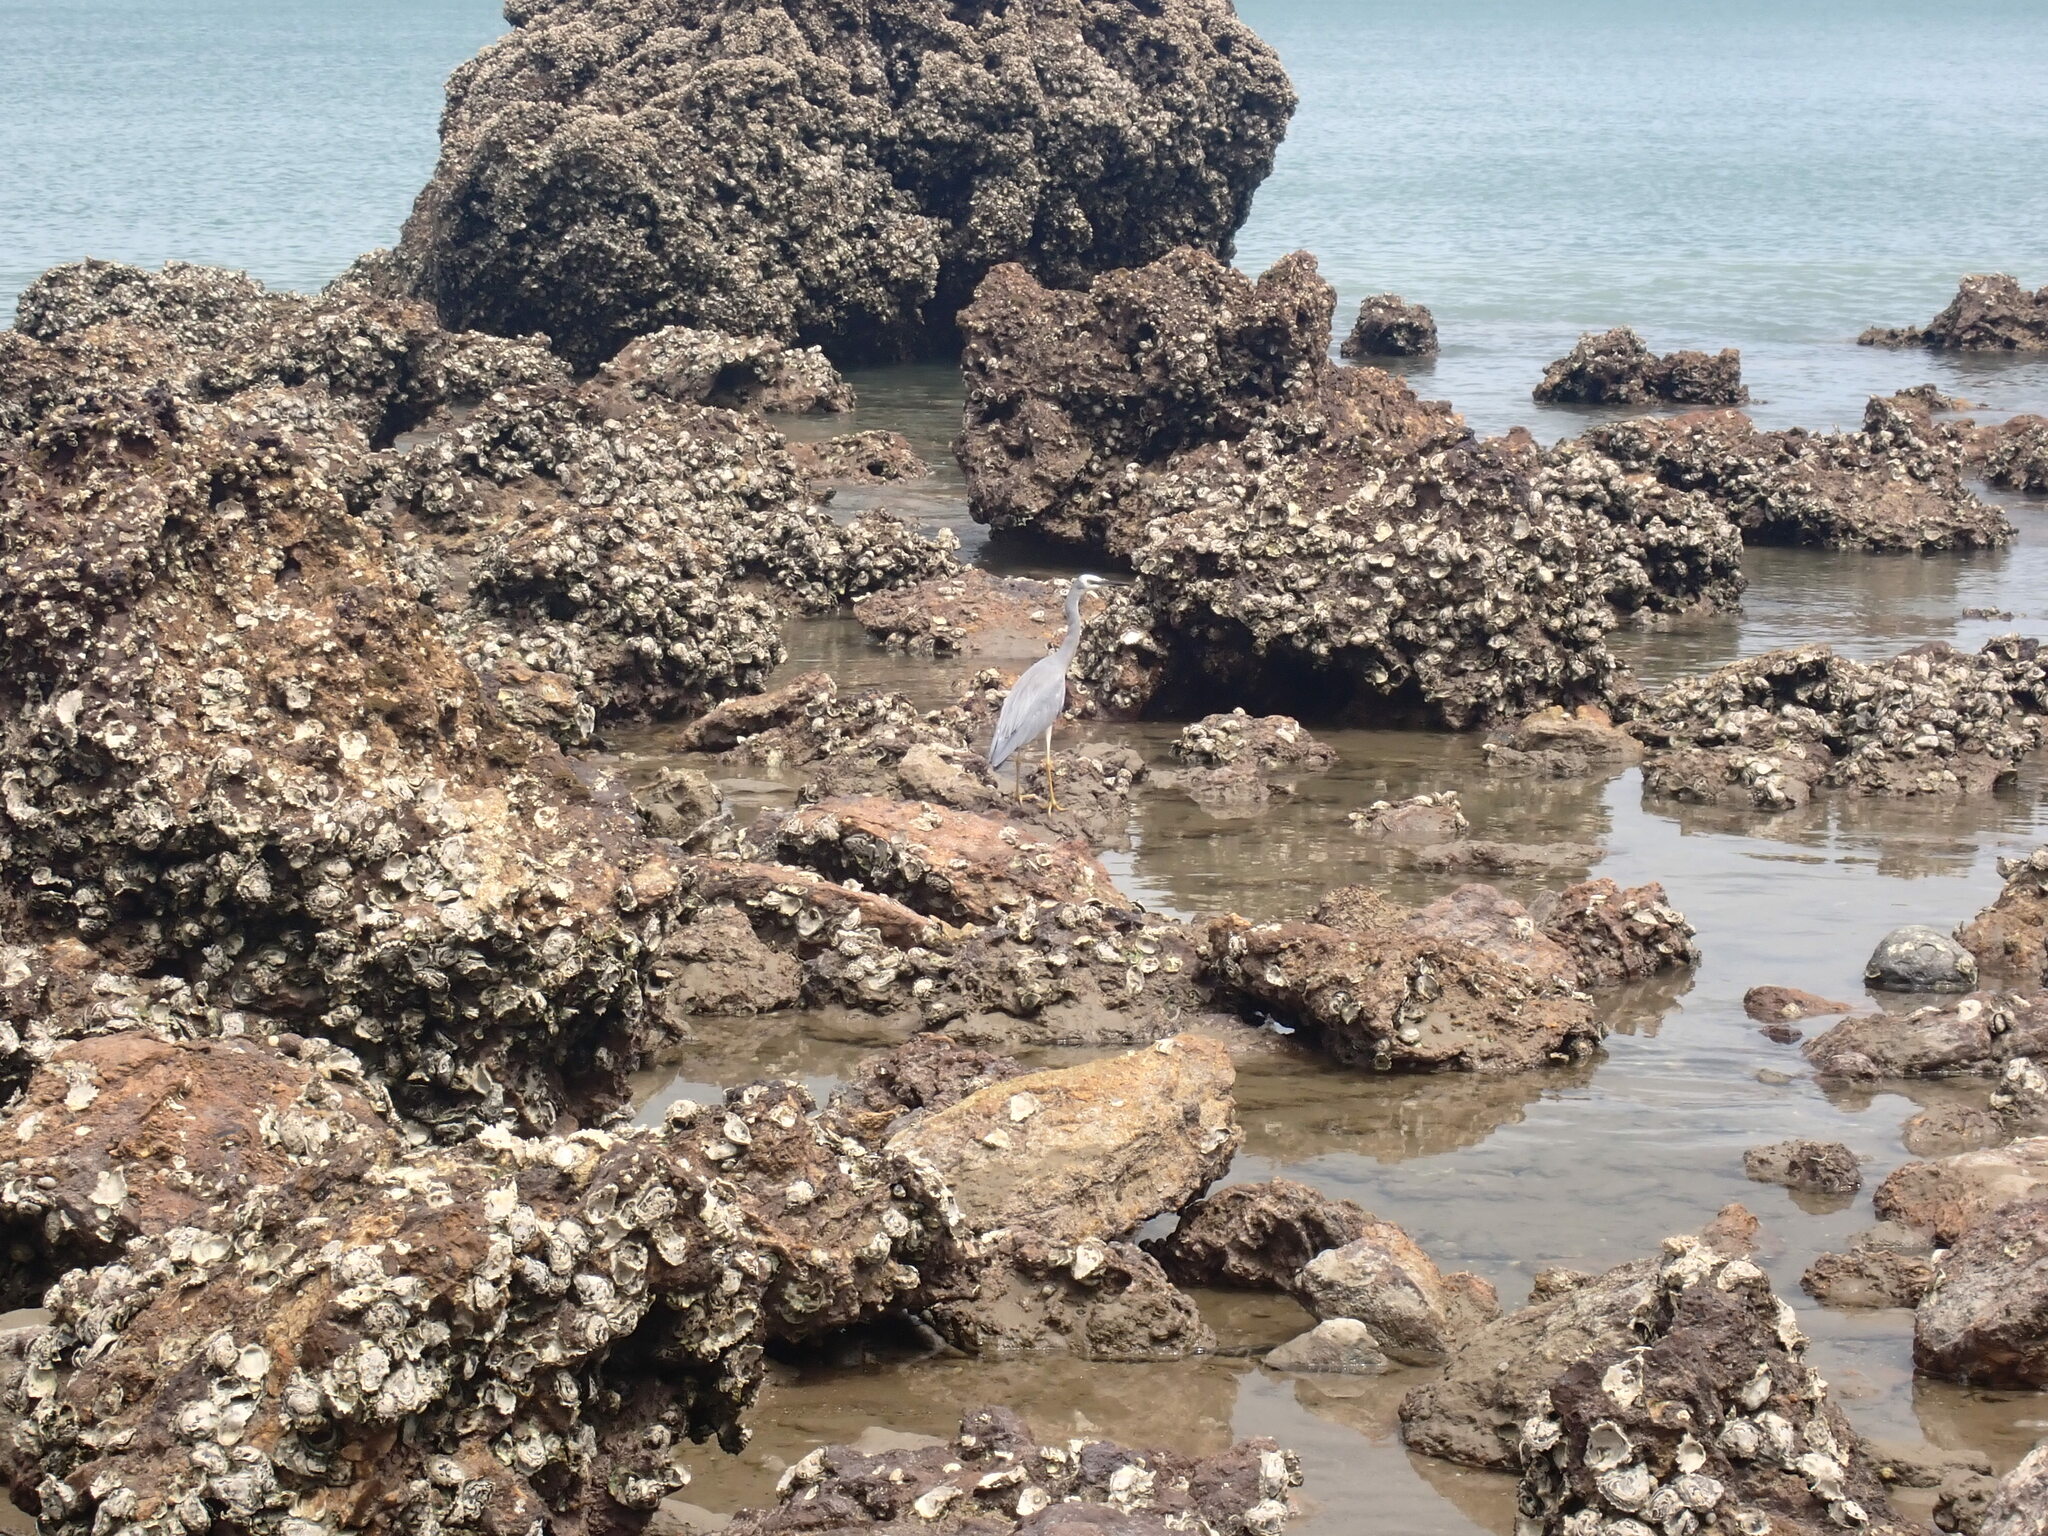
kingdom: Animalia
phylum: Chordata
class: Aves
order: Pelecaniformes
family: Ardeidae
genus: Egretta
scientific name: Egretta novaehollandiae
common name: White-faced heron
